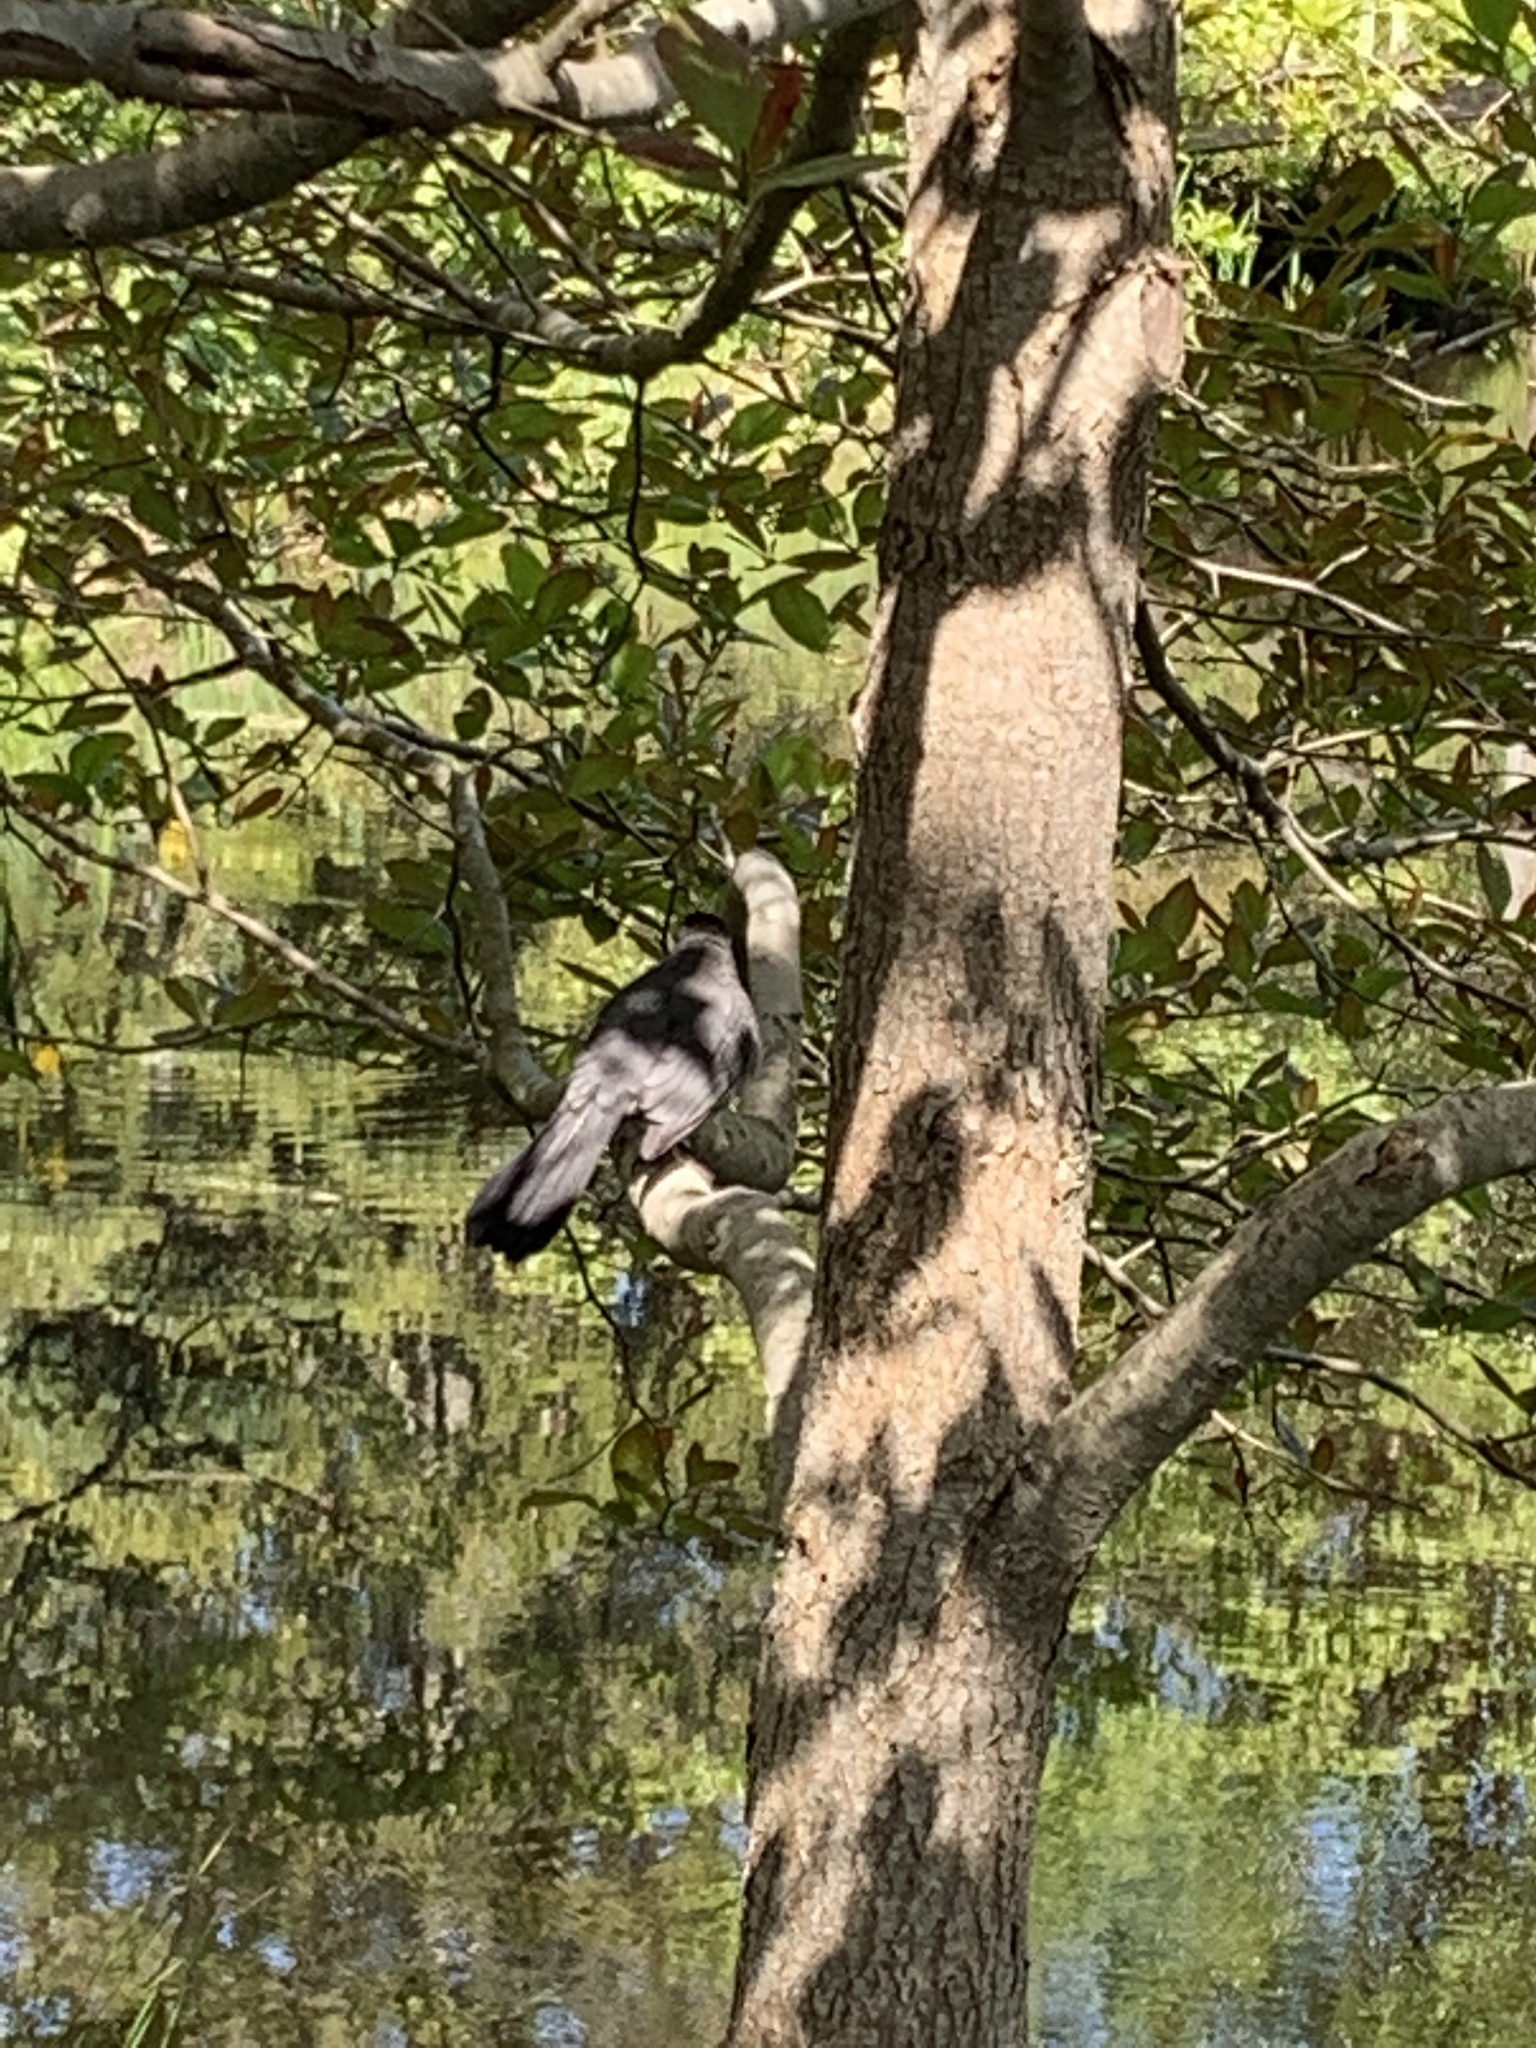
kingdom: Animalia
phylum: Chordata
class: Aves
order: Passeriformes
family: Mimidae
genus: Dumetella
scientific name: Dumetella carolinensis
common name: Gray catbird
